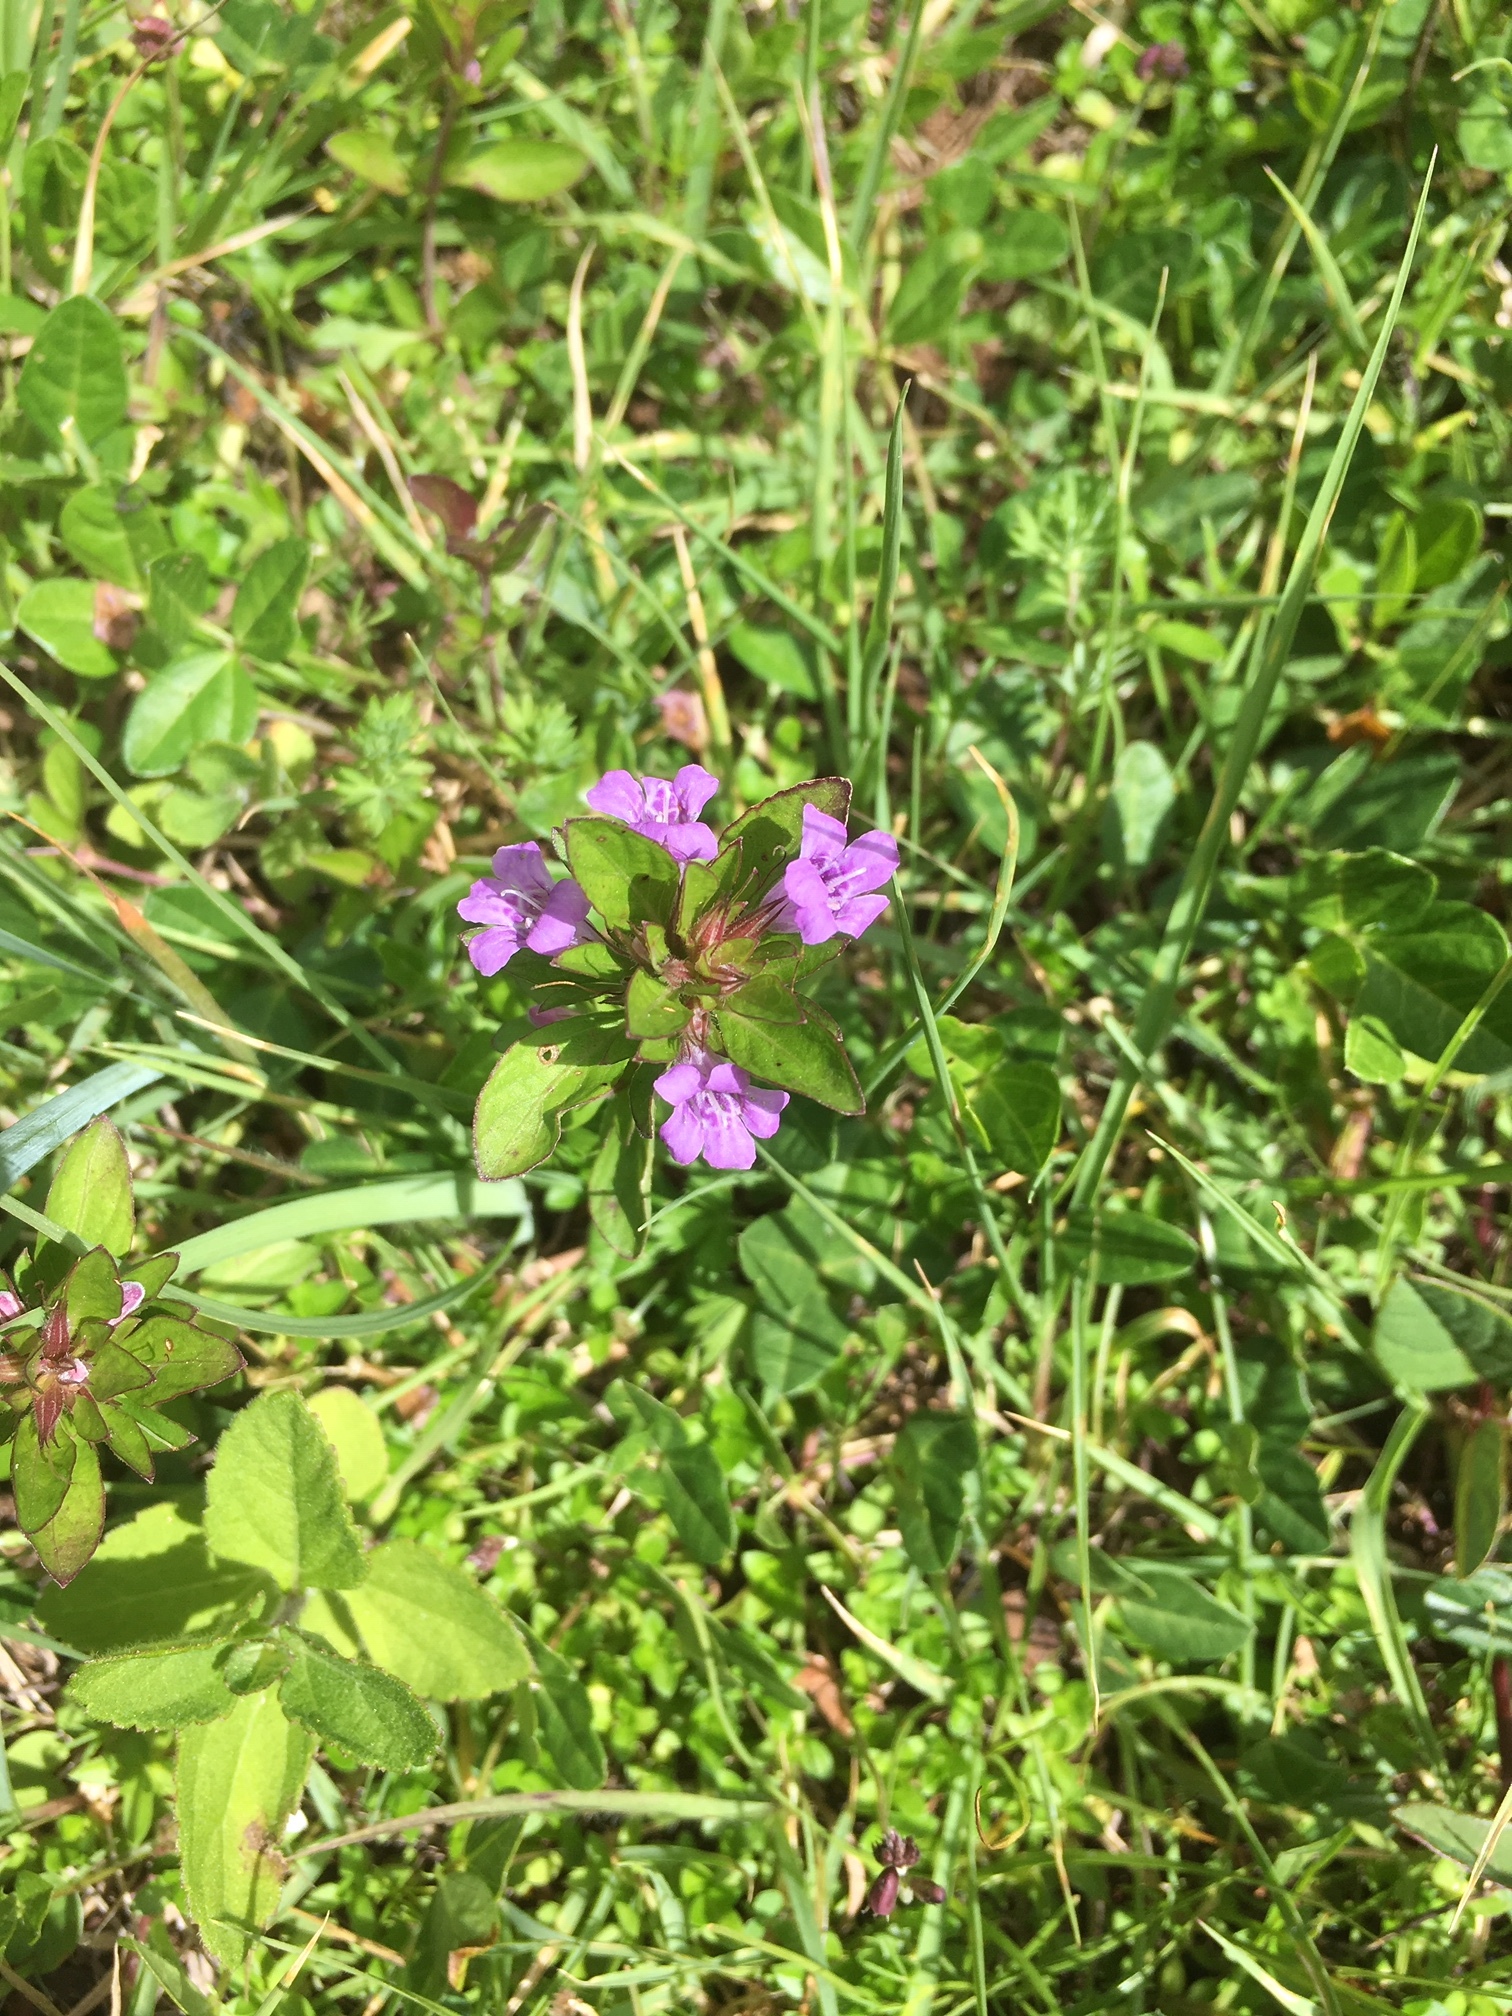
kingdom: Plantae
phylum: Tracheophyta
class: Magnoliopsida
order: Lamiales
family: Acanthaceae
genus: Dyschoriste
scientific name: Dyschoriste capitata
